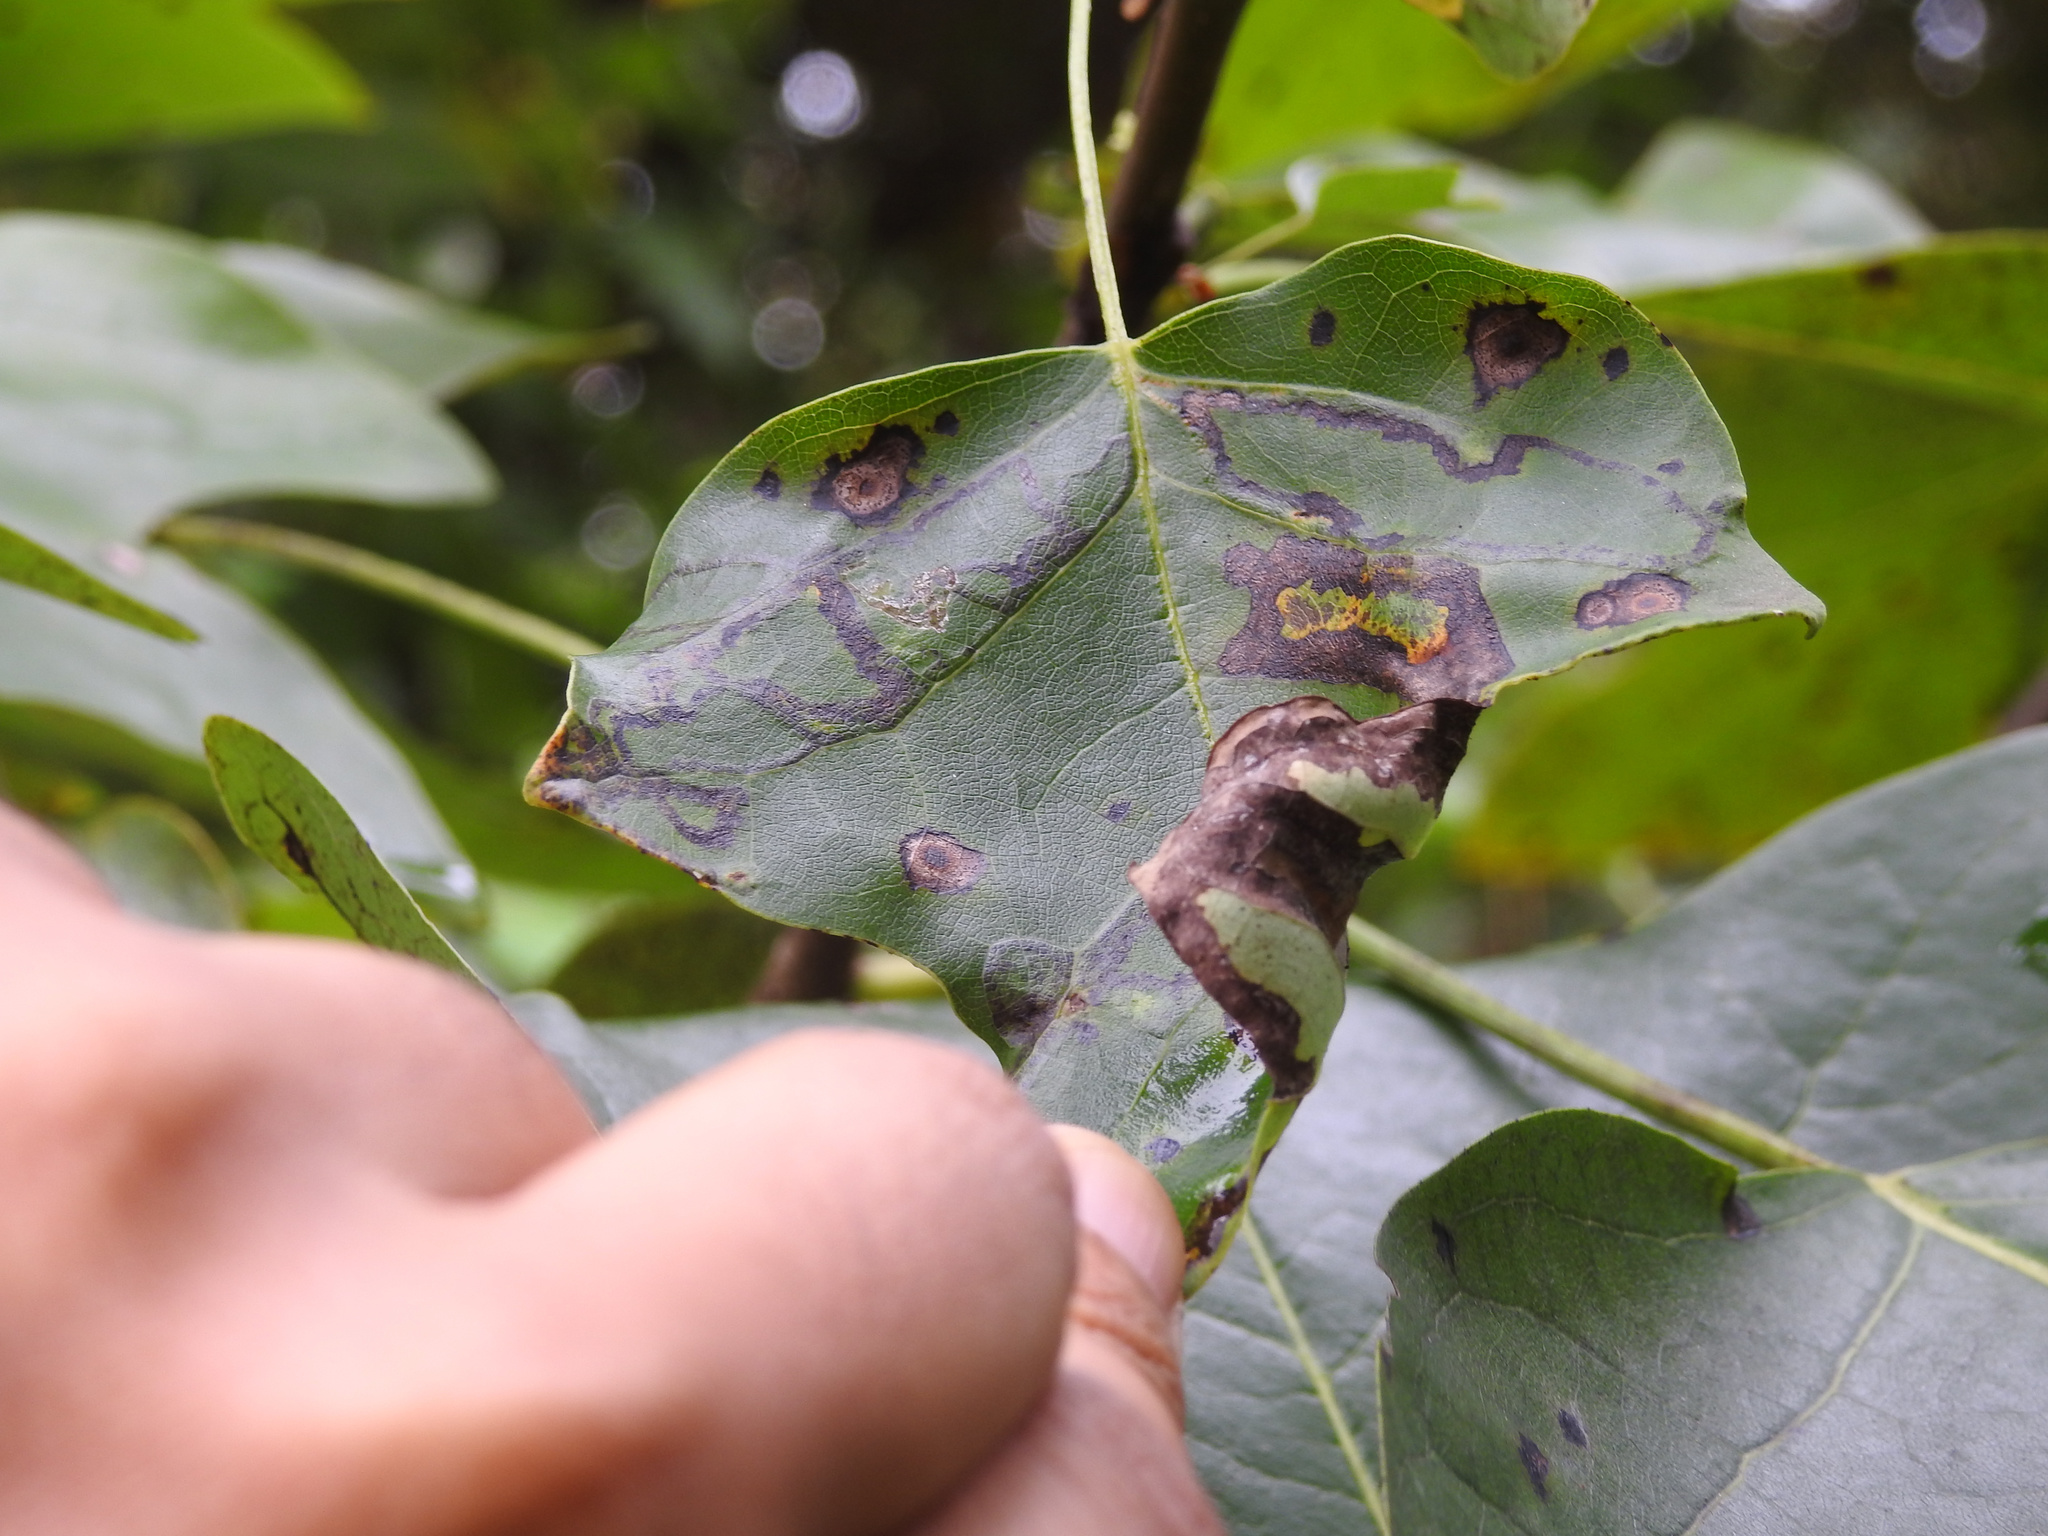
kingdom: Animalia
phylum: Arthropoda
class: Insecta
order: Lepidoptera
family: Gracillariidae
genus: Phyllocnistis
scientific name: Phyllocnistis liriodendronella
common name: Tulip tree leaf miner
